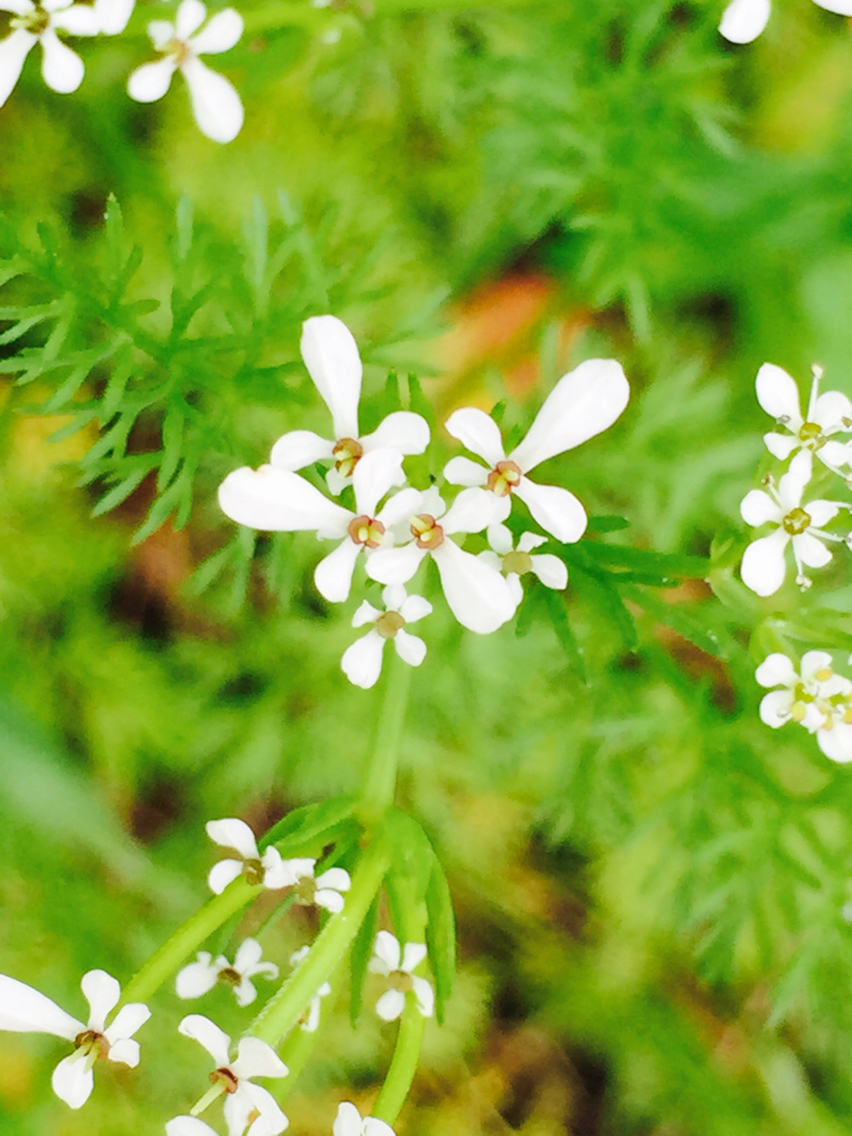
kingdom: Plantae
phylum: Tracheophyta
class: Magnoliopsida
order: Apiales
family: Apiaceae
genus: Scandix
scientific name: Scandix pecten-veneris
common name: Shepherd's-needle
